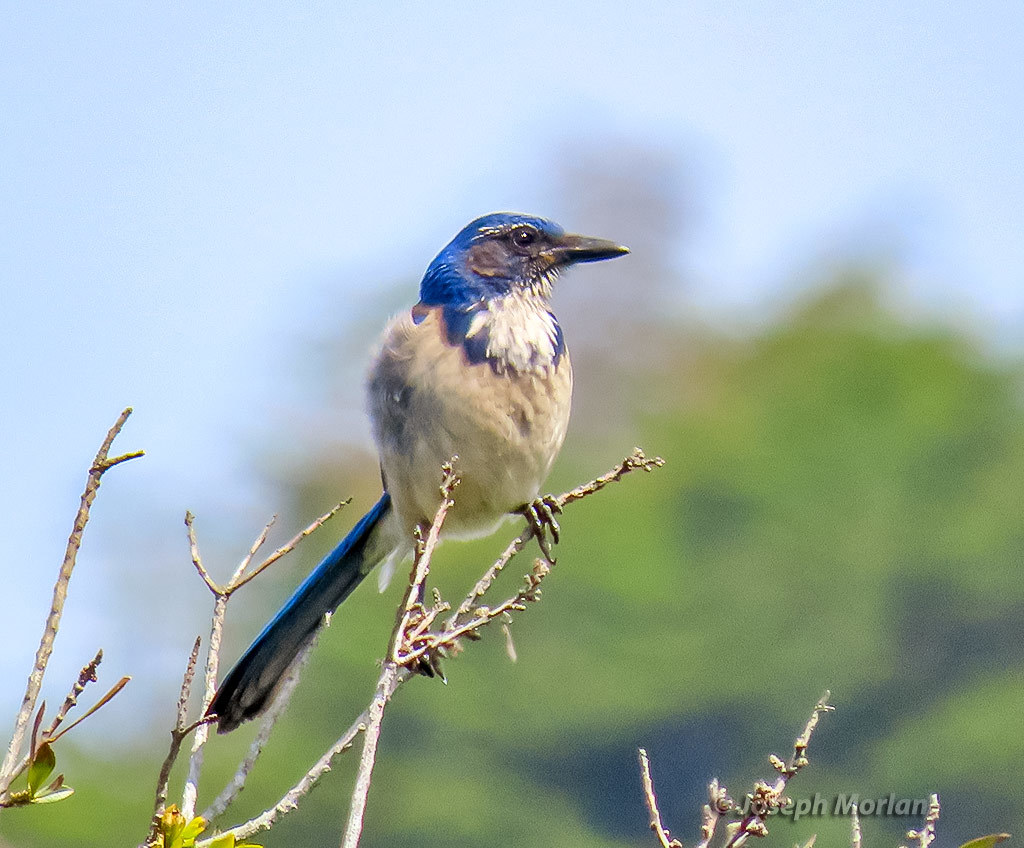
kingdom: Animalia
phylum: Chordata
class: Aves
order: Passeriformes
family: Corvidae
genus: Aphelocoma
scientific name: Aphelocoma californica
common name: California scrub-jay
